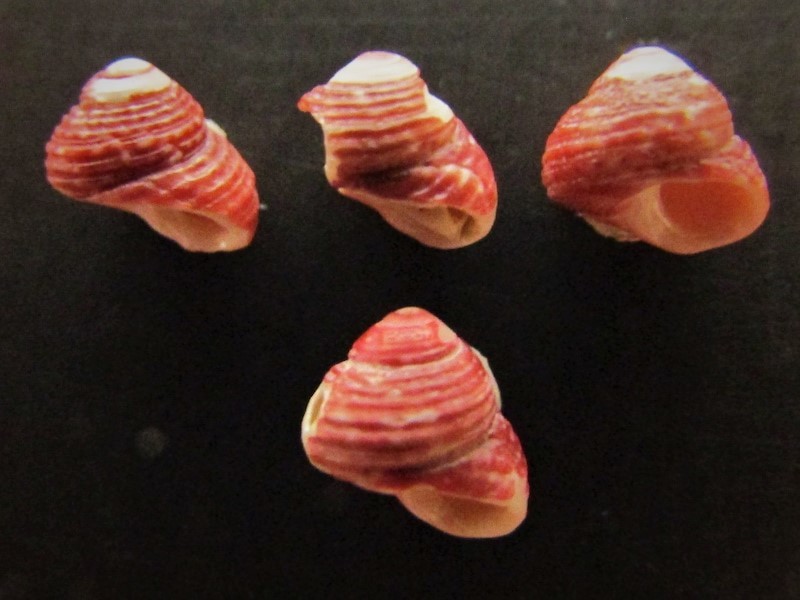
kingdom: Animalia
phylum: Mollusca
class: Gastropoda
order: Trochida
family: Colloniidae
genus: Gigahomalopoma
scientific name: Gigahomalopoma nocturnum
